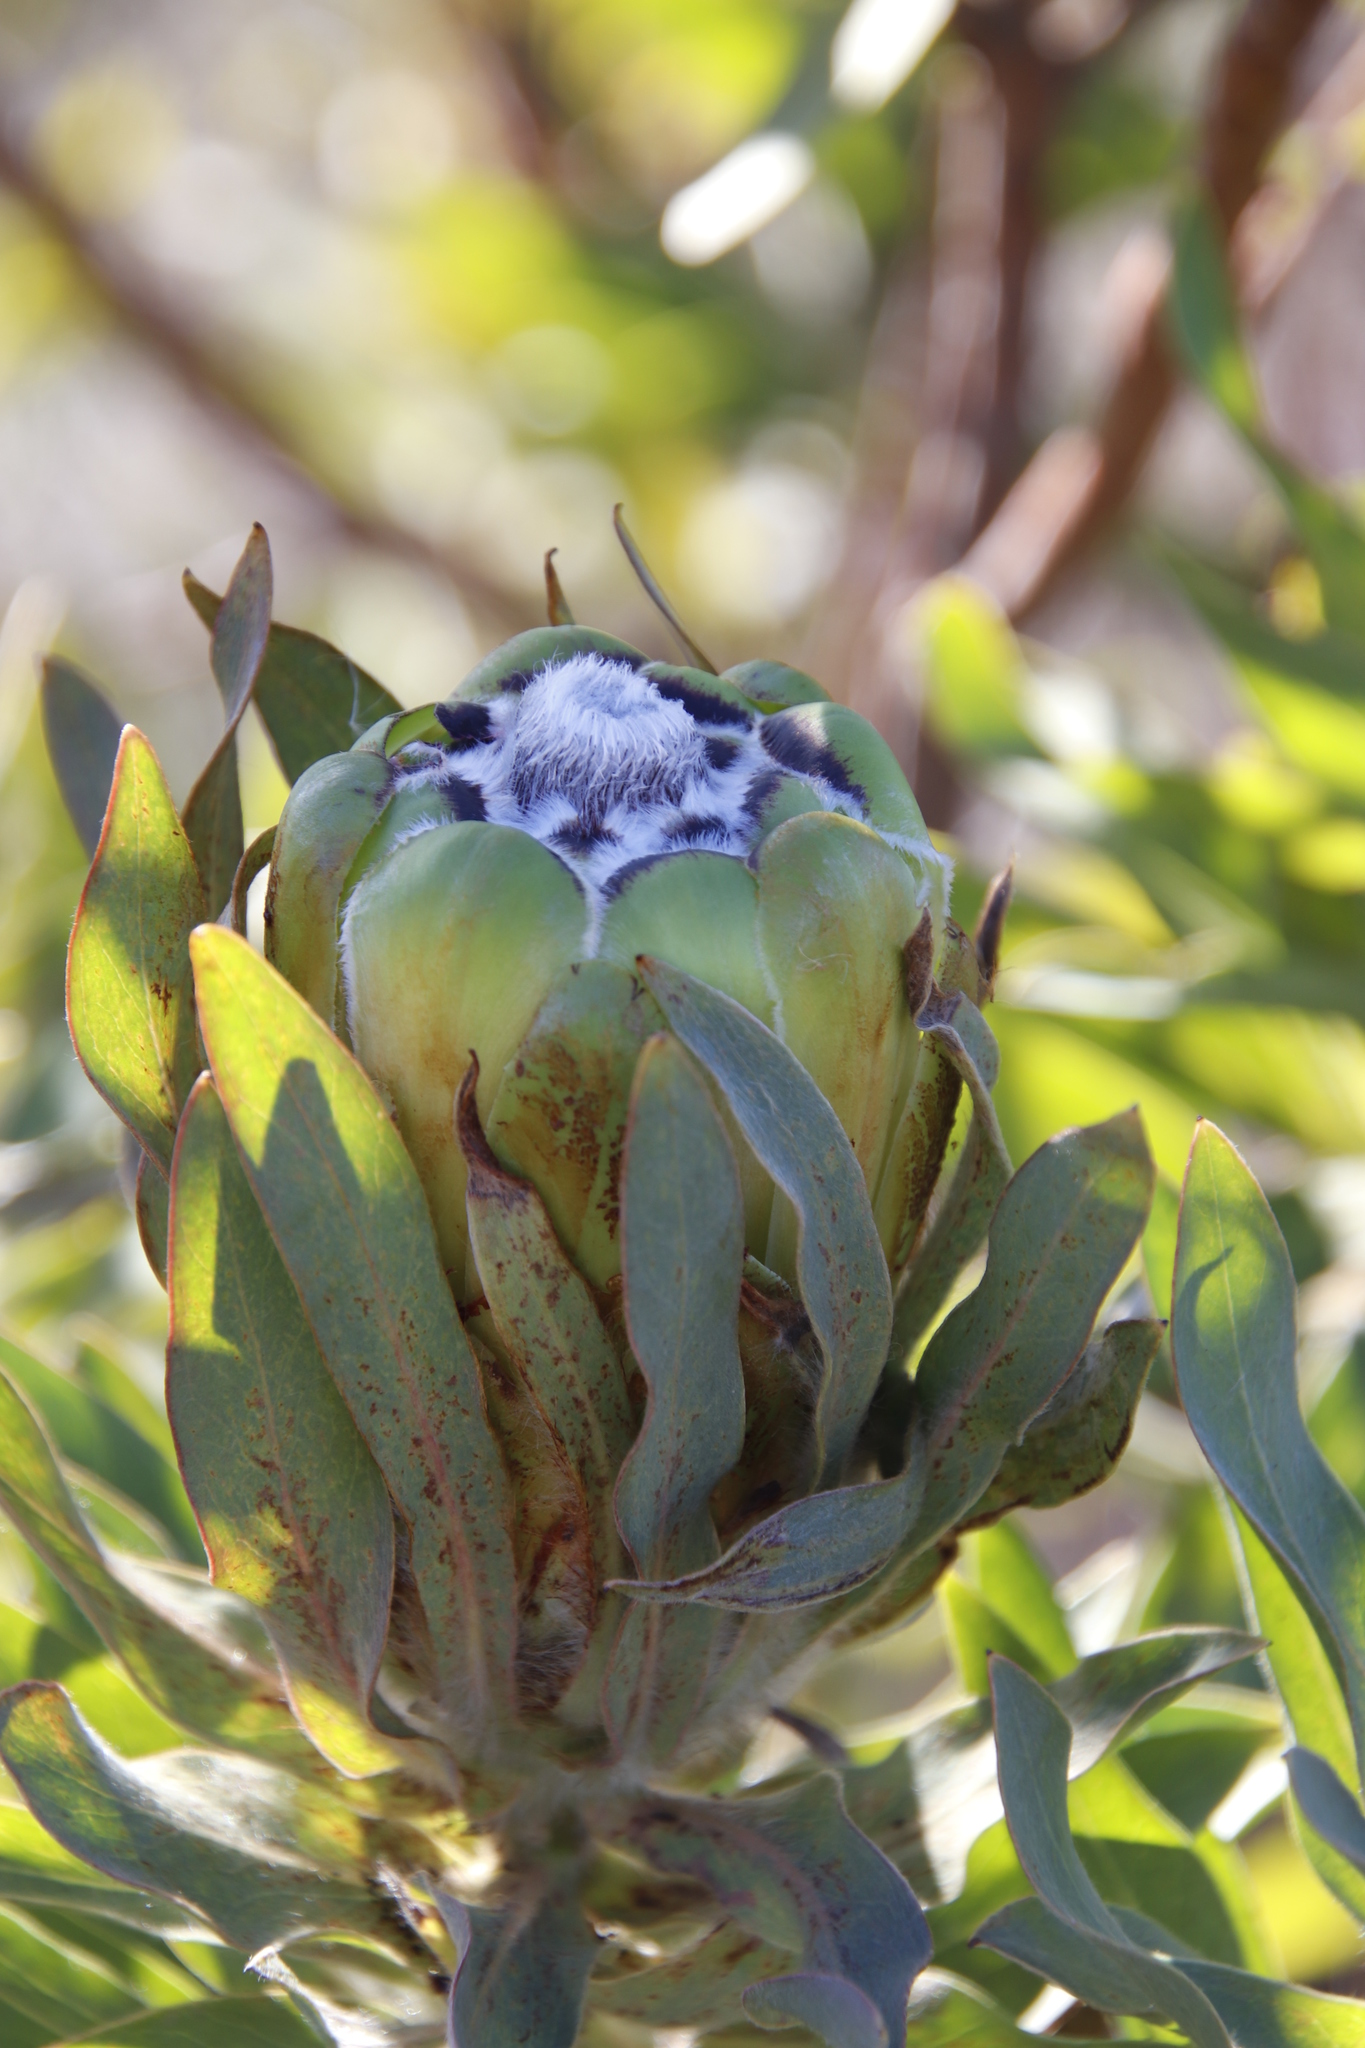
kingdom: Plantae
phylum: Tracheophyta
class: Magnoliopsida
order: Proteales
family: Proteaceae
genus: Protea
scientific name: Protea coronata
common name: Green sugarbush
